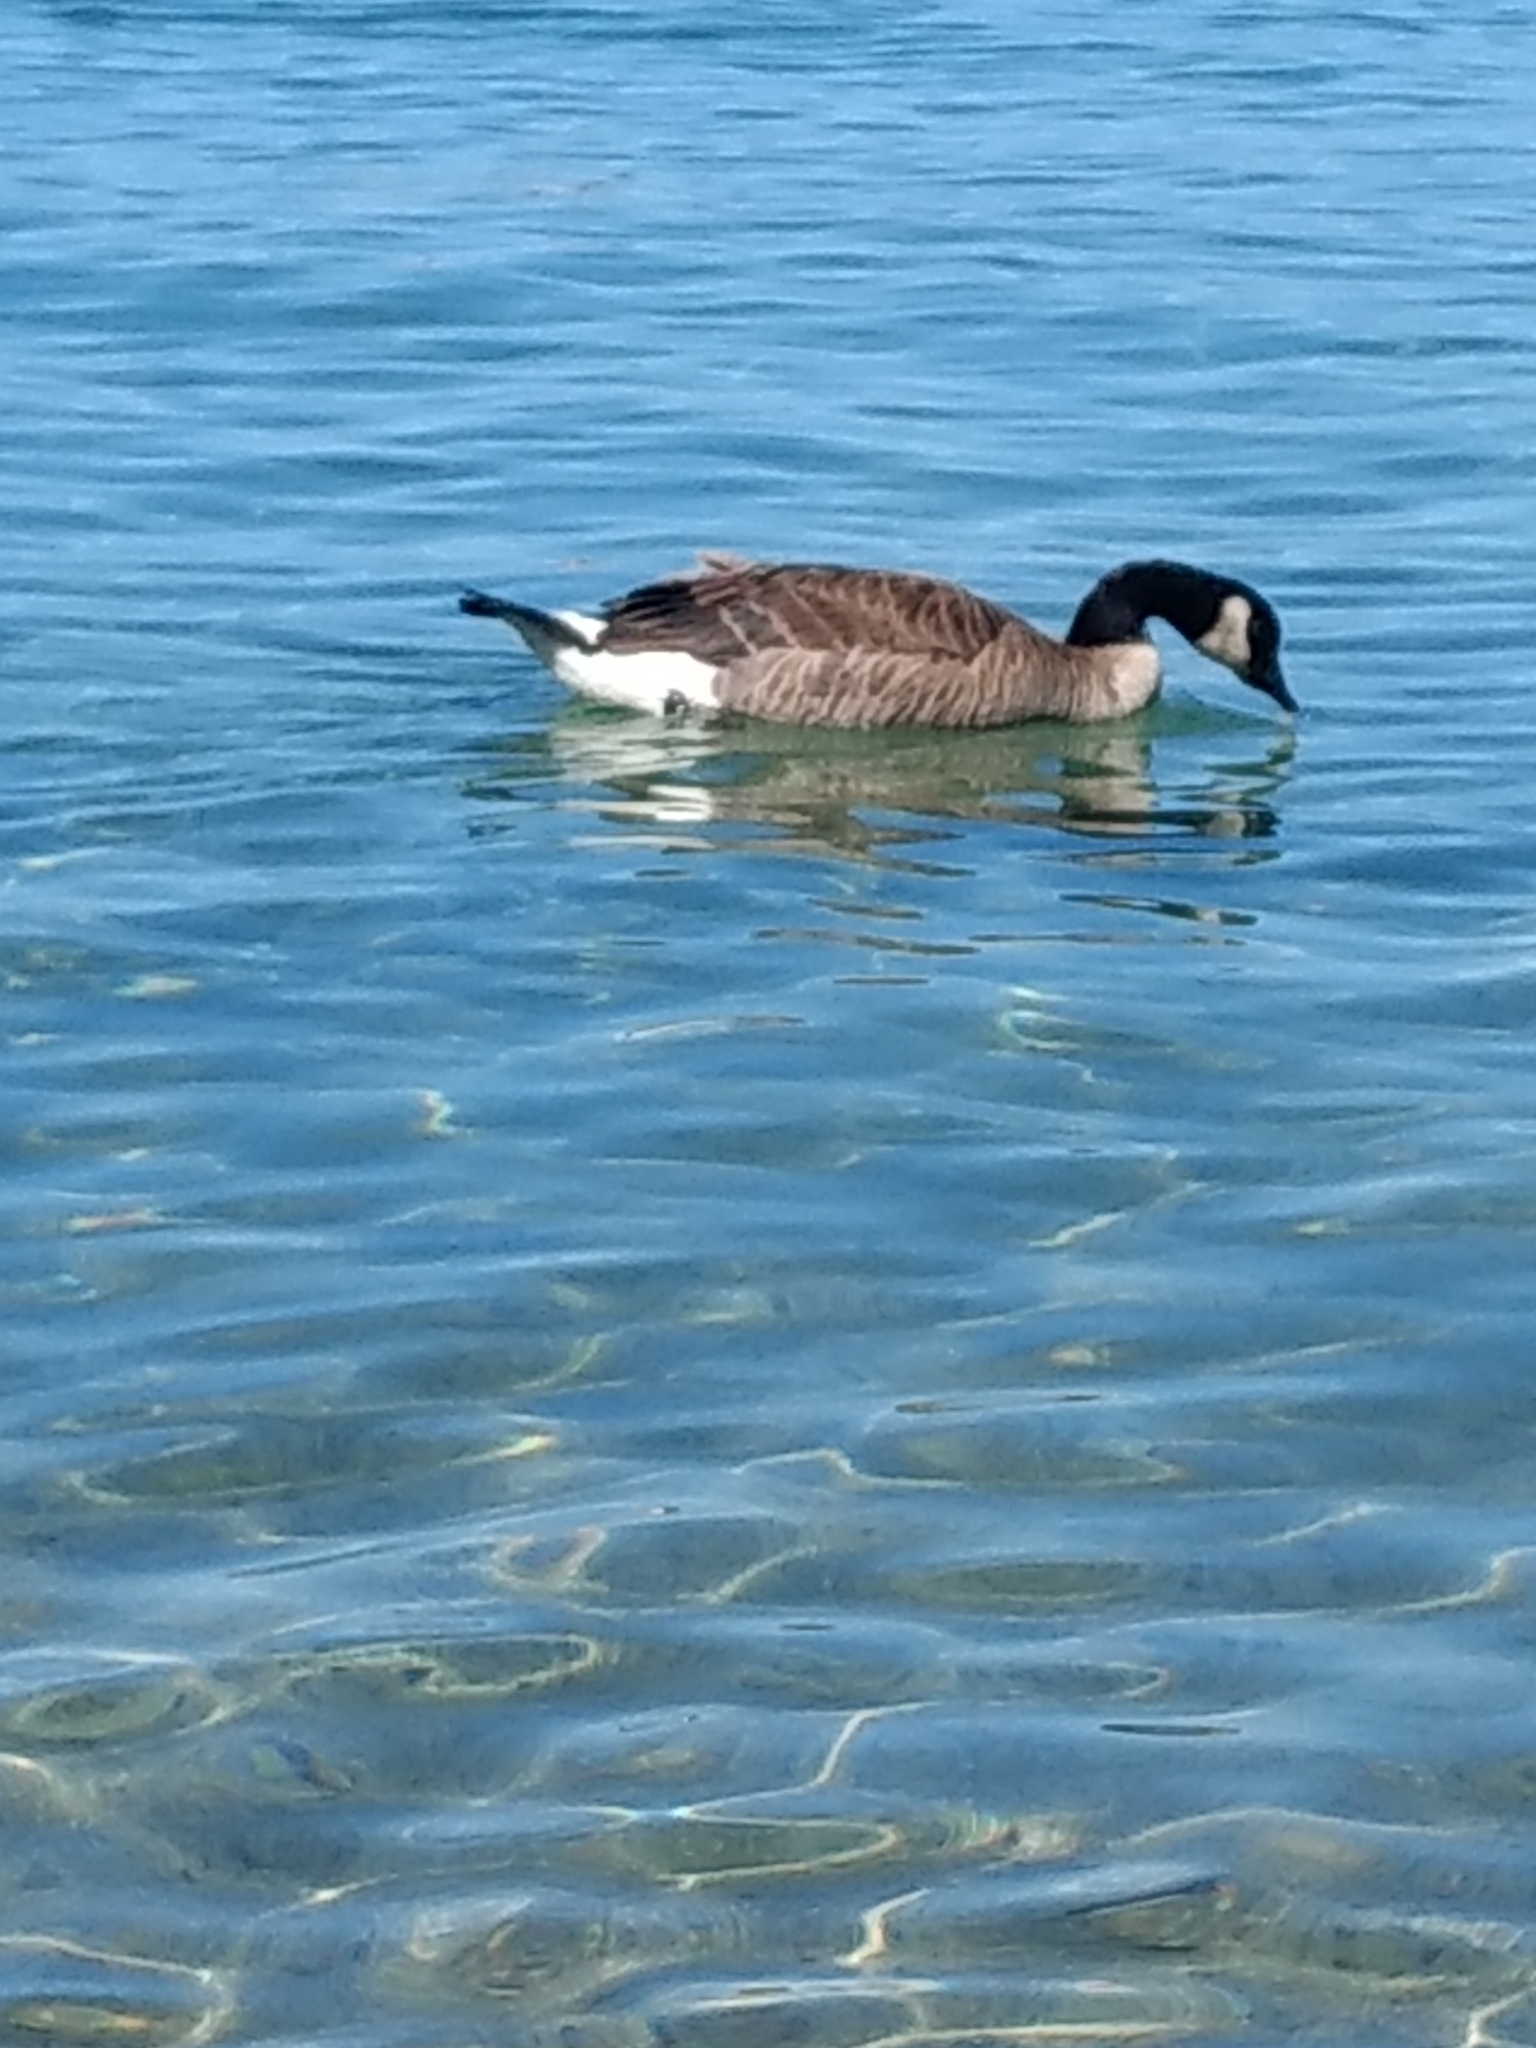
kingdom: Animalia
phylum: Chordata
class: Aves
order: Anseriformes
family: Anatidae
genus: Branta
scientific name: Branta canadensis
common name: Canada goose
